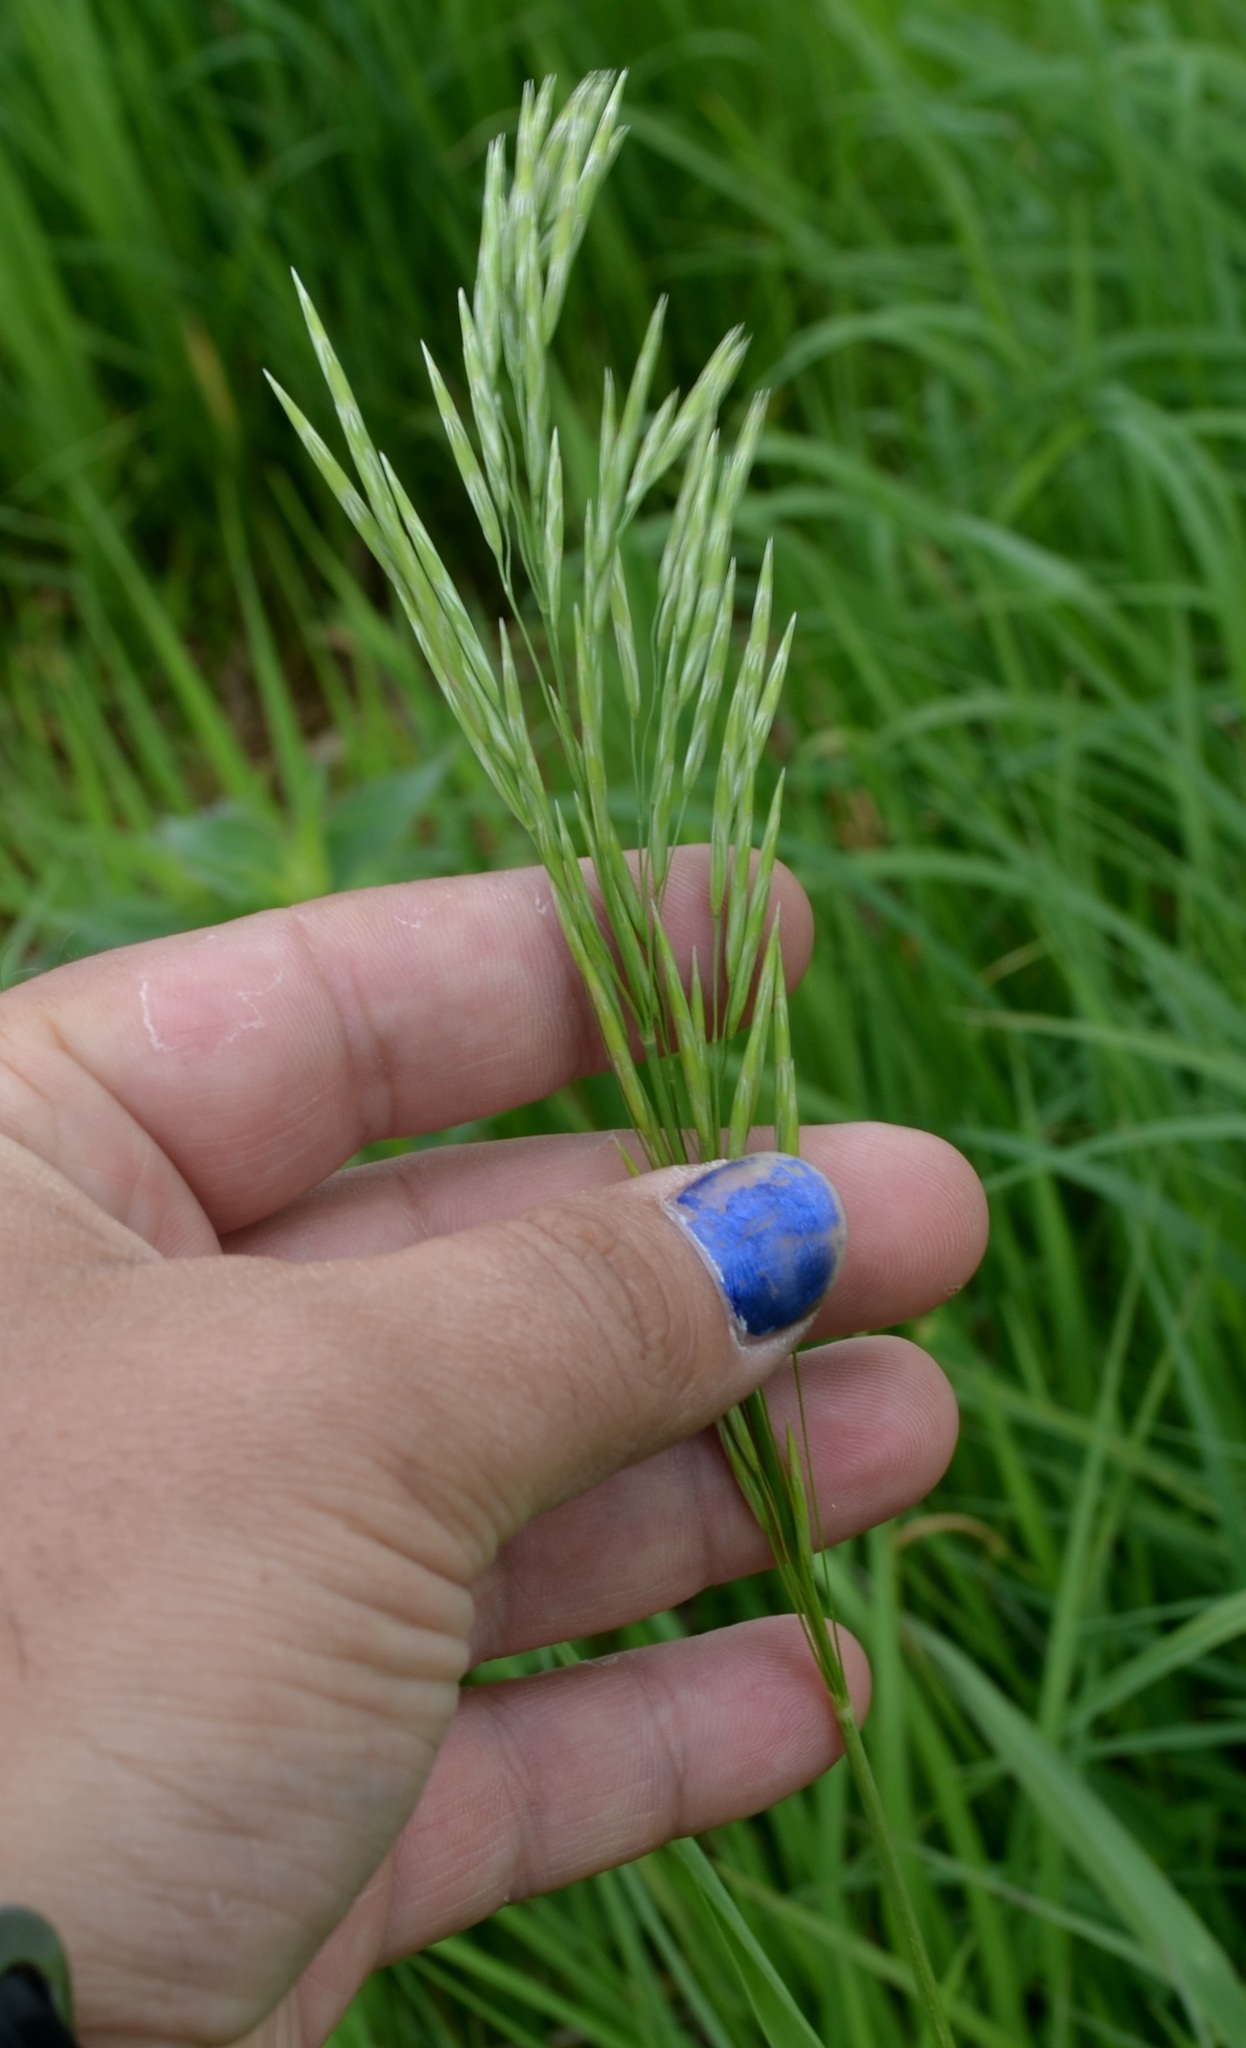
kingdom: Plantae
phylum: Tracheophyta
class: Liliopsida
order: Poales
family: Poaceae
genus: Bromus
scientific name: Bromus inermis
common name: Smooth brome
